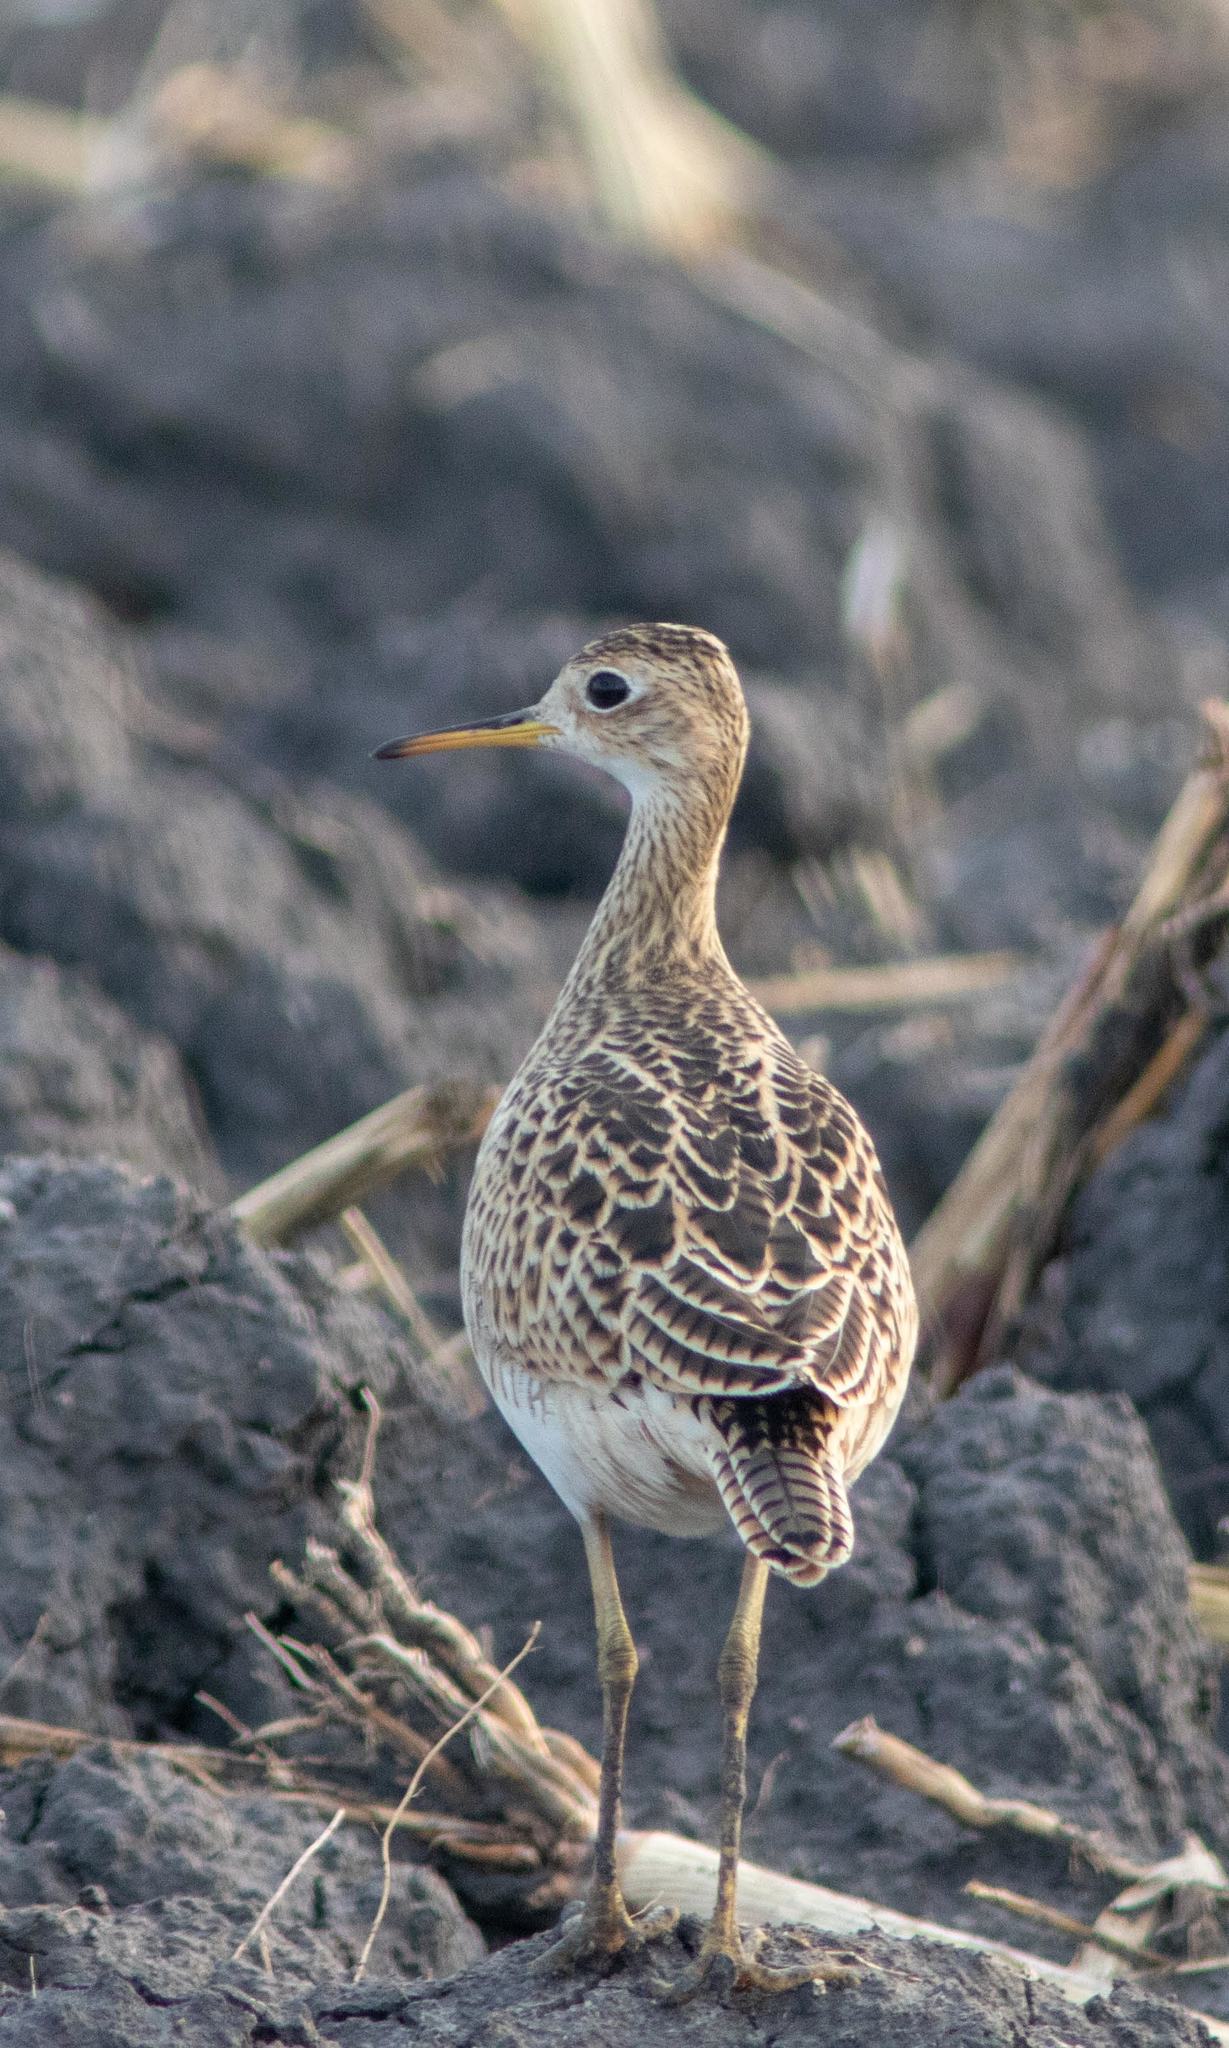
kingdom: Animalia
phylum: Chordata
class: Aves
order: Charadriiformes
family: Scolopacidae
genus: Bartramia
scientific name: Bartramia longicauda
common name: Upland sandpiper
